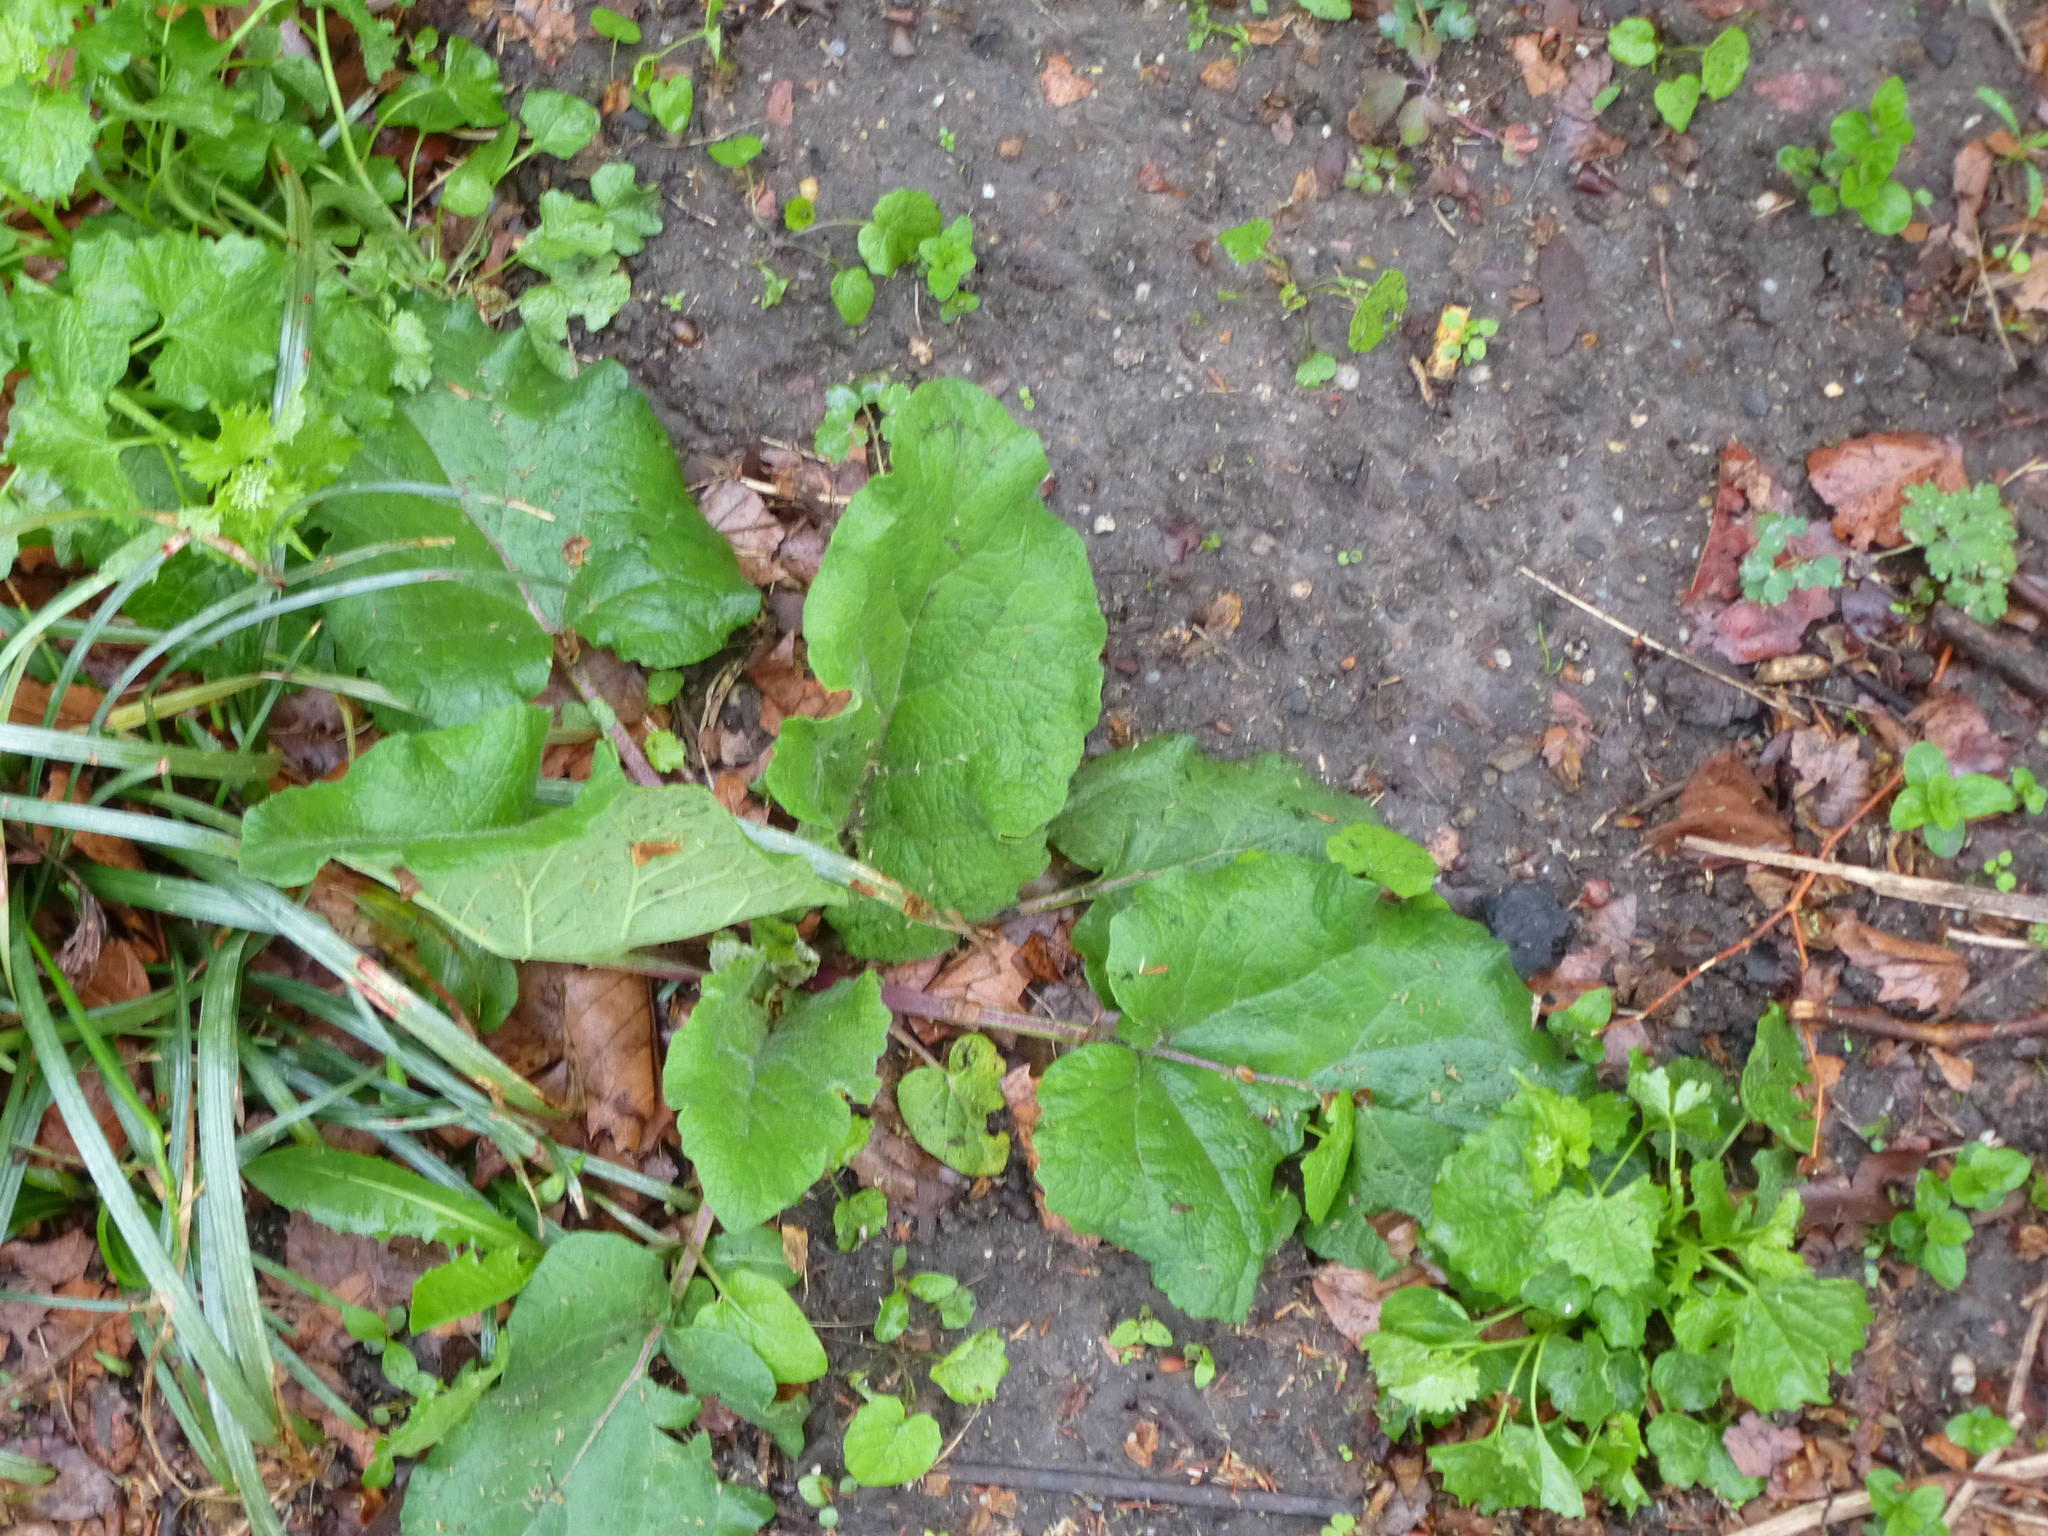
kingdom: Plantae
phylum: Tracheophyta
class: Magnoliopsida
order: Asterales
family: Asteraceae
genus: Arctium
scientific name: Arctium
